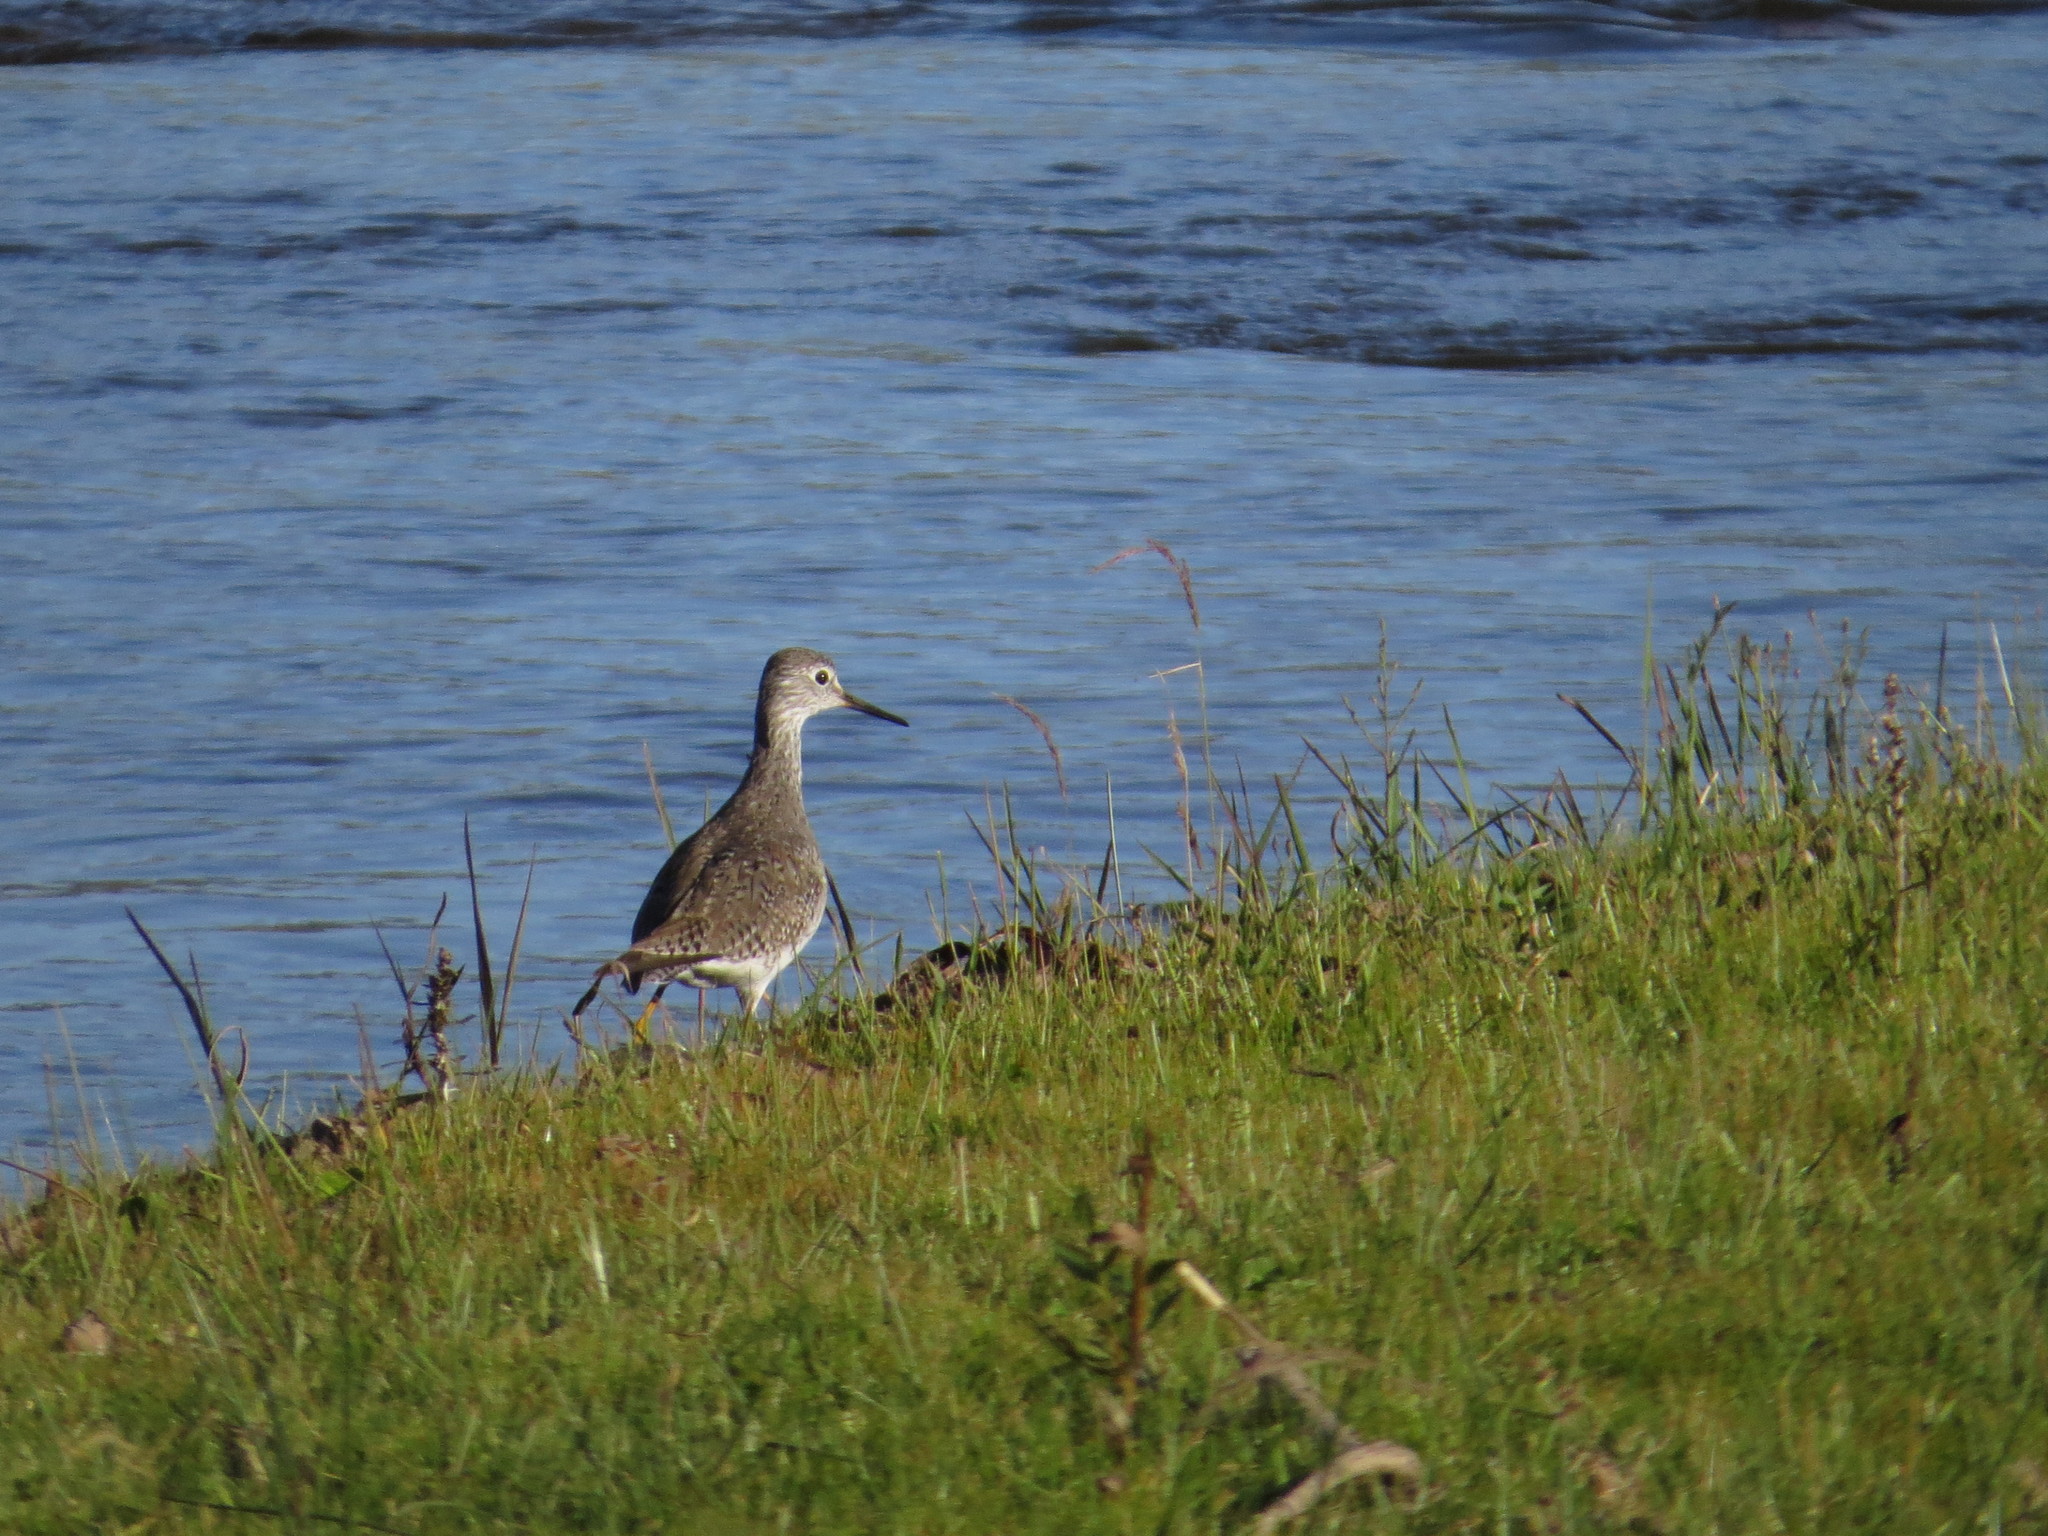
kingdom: Animalia
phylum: Chordata
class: Aves
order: Charadriiformes
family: Scolopacidae
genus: Tringa
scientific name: Tringa flavipes
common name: Lesser yellowlegs
